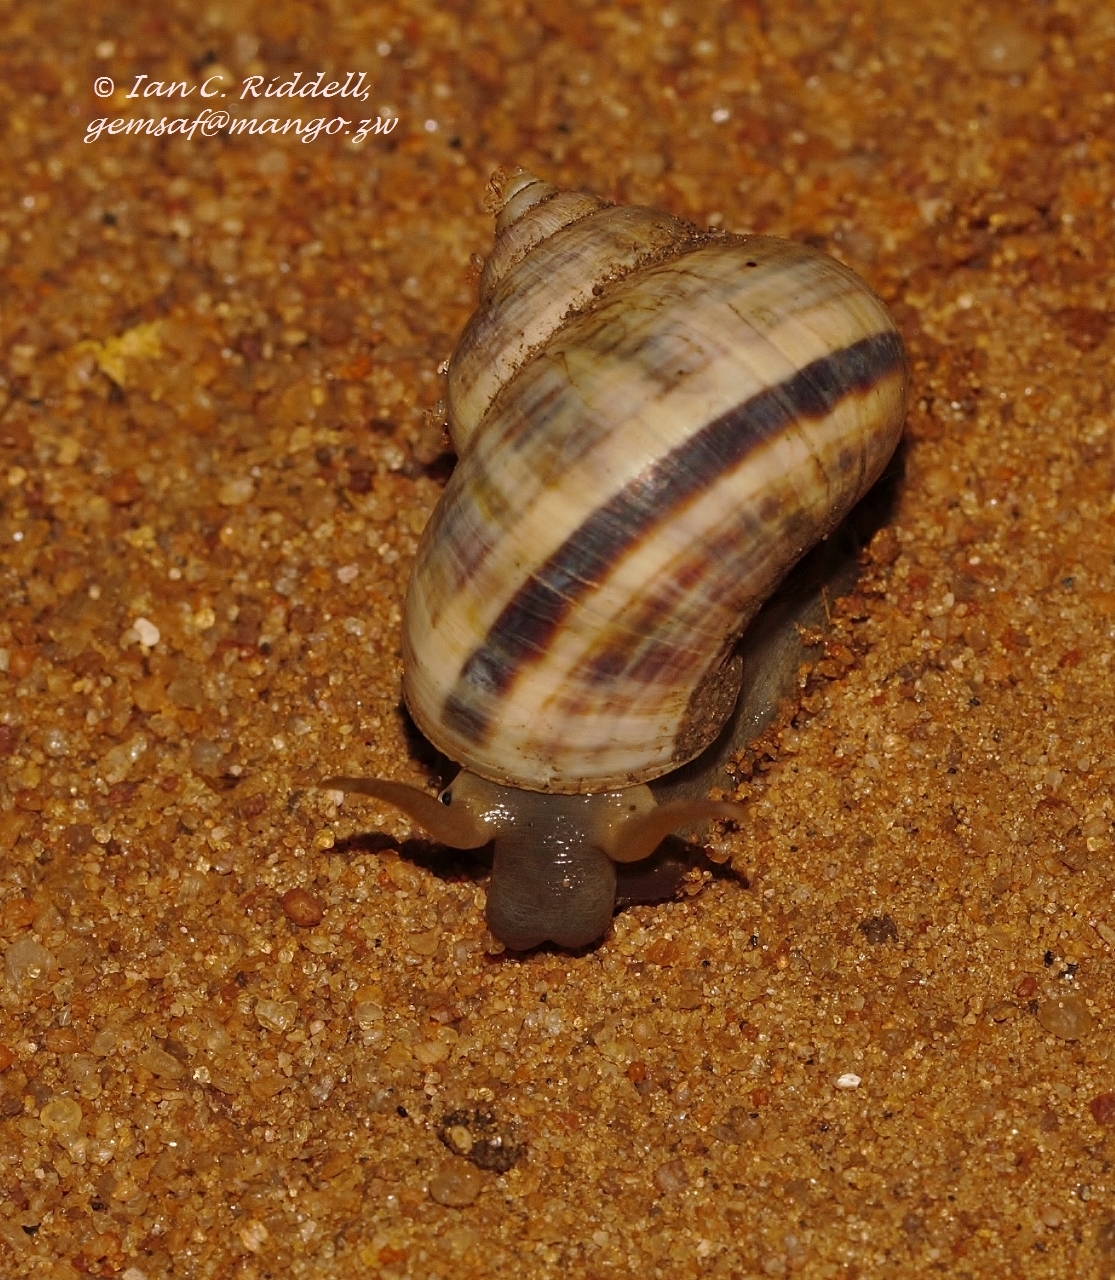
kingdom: Animalia
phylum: Mollusca
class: Gastropoda
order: Littorinimorpha
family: Pomatiidae
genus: Tropidophora
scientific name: Tropidophora anceps
